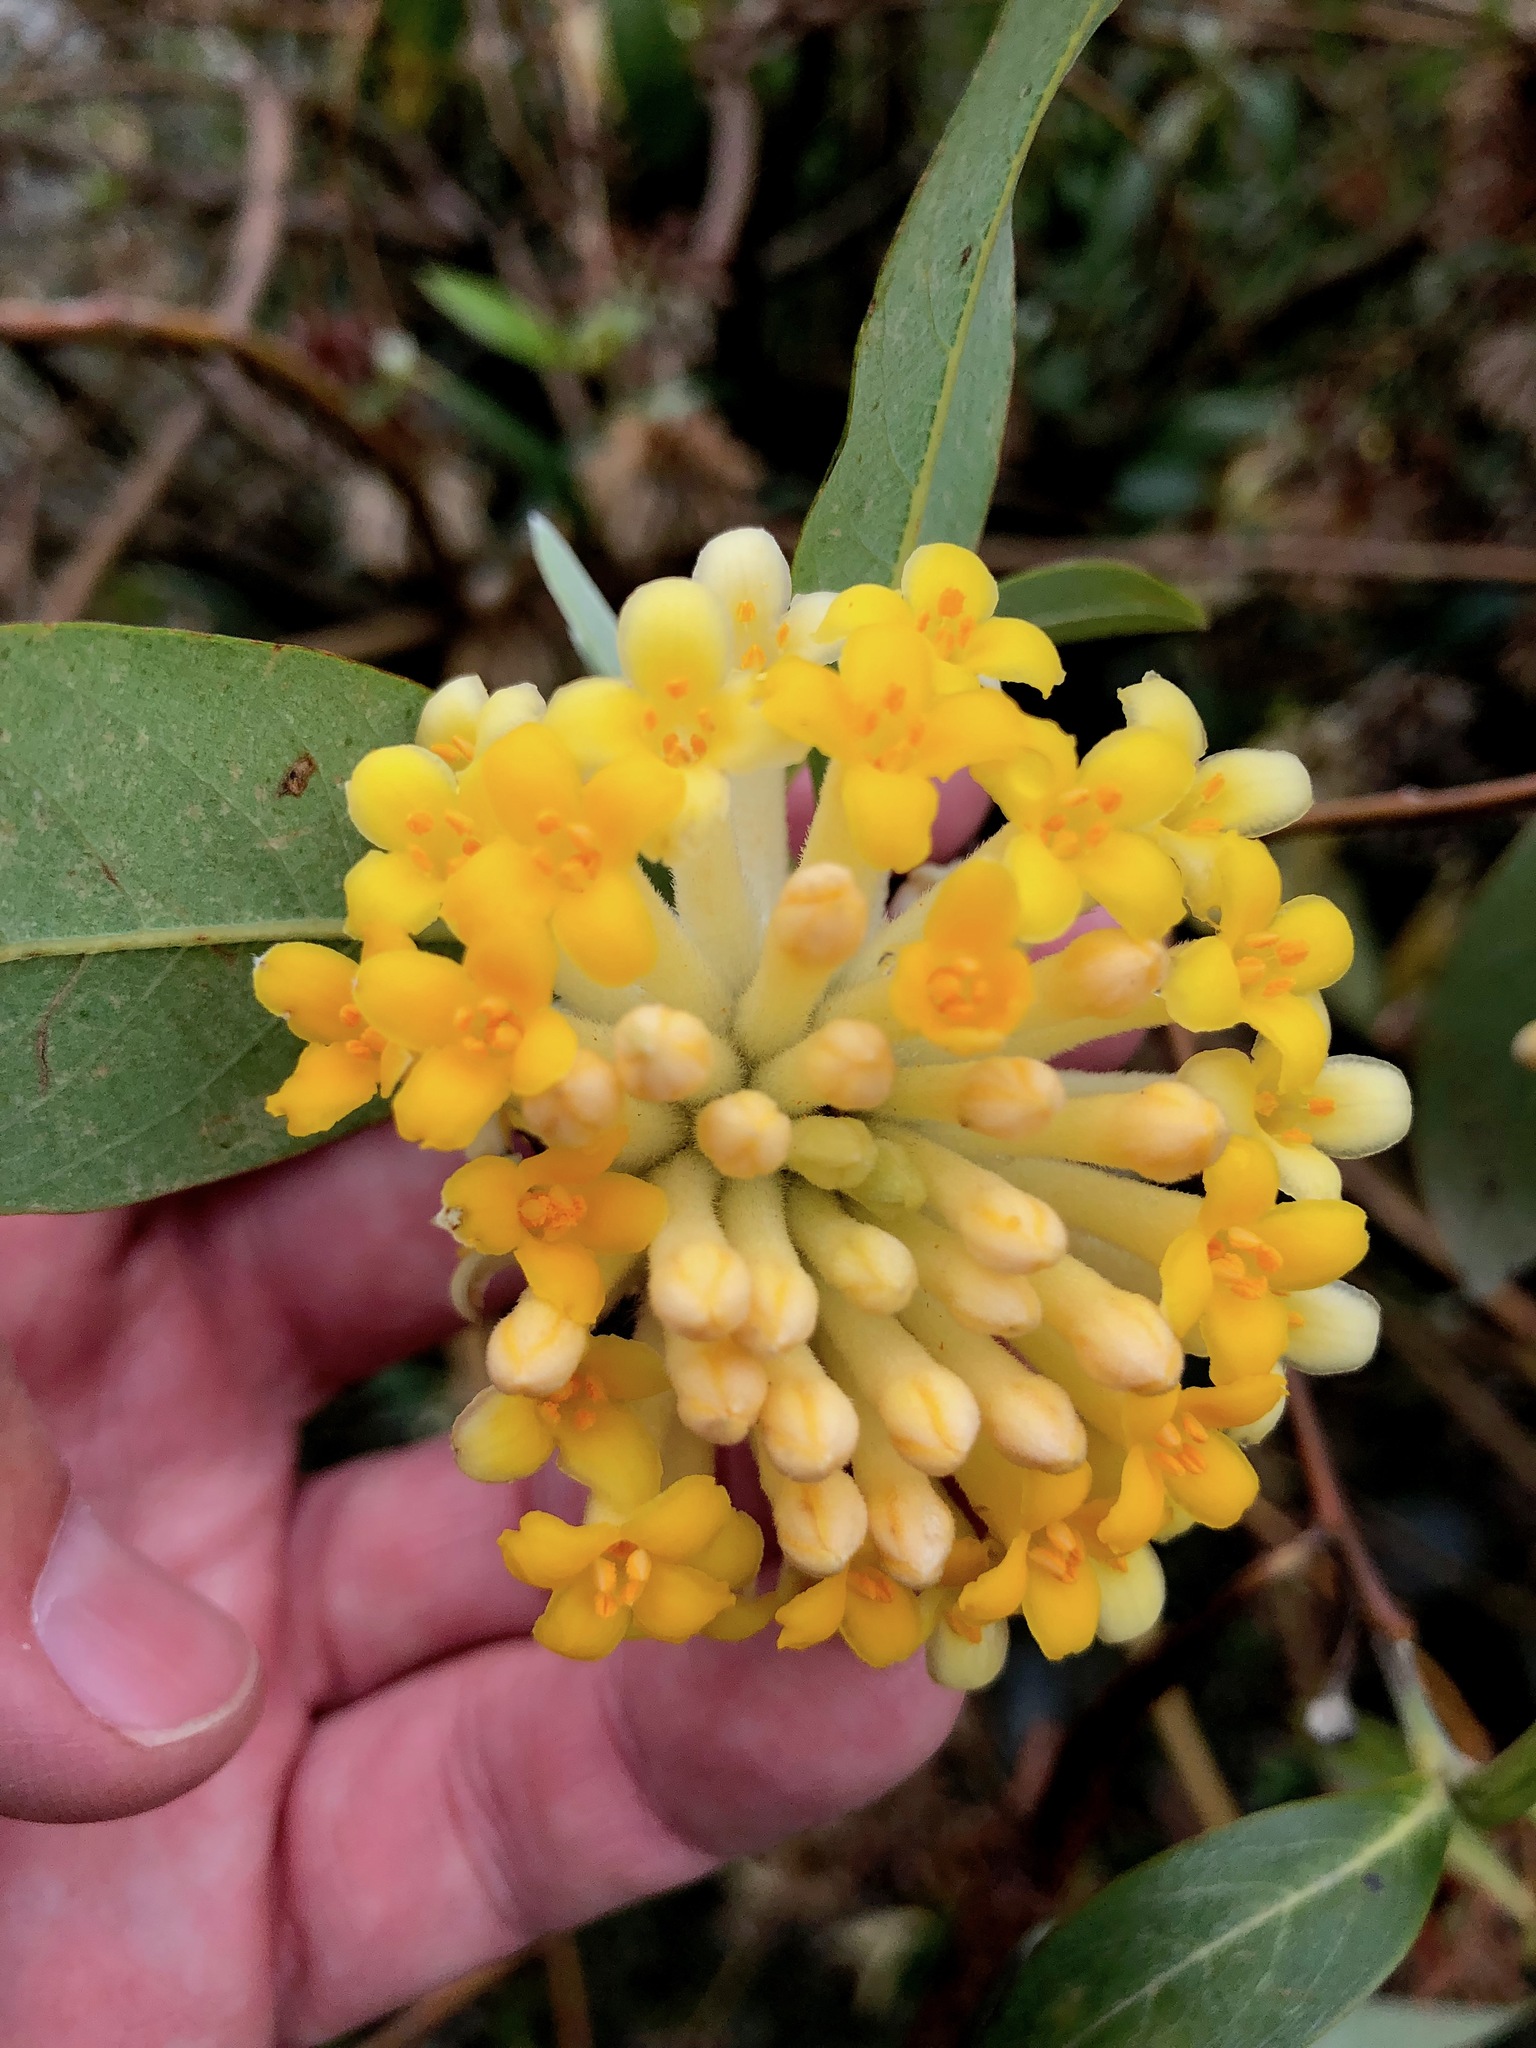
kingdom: Plantae
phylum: Tracheophyta
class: Magnoliopsida
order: Malvales
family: Thymelaeaceae
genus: Edgeworthia
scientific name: Edgeworthia gardneri
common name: Nepalese paperbush
